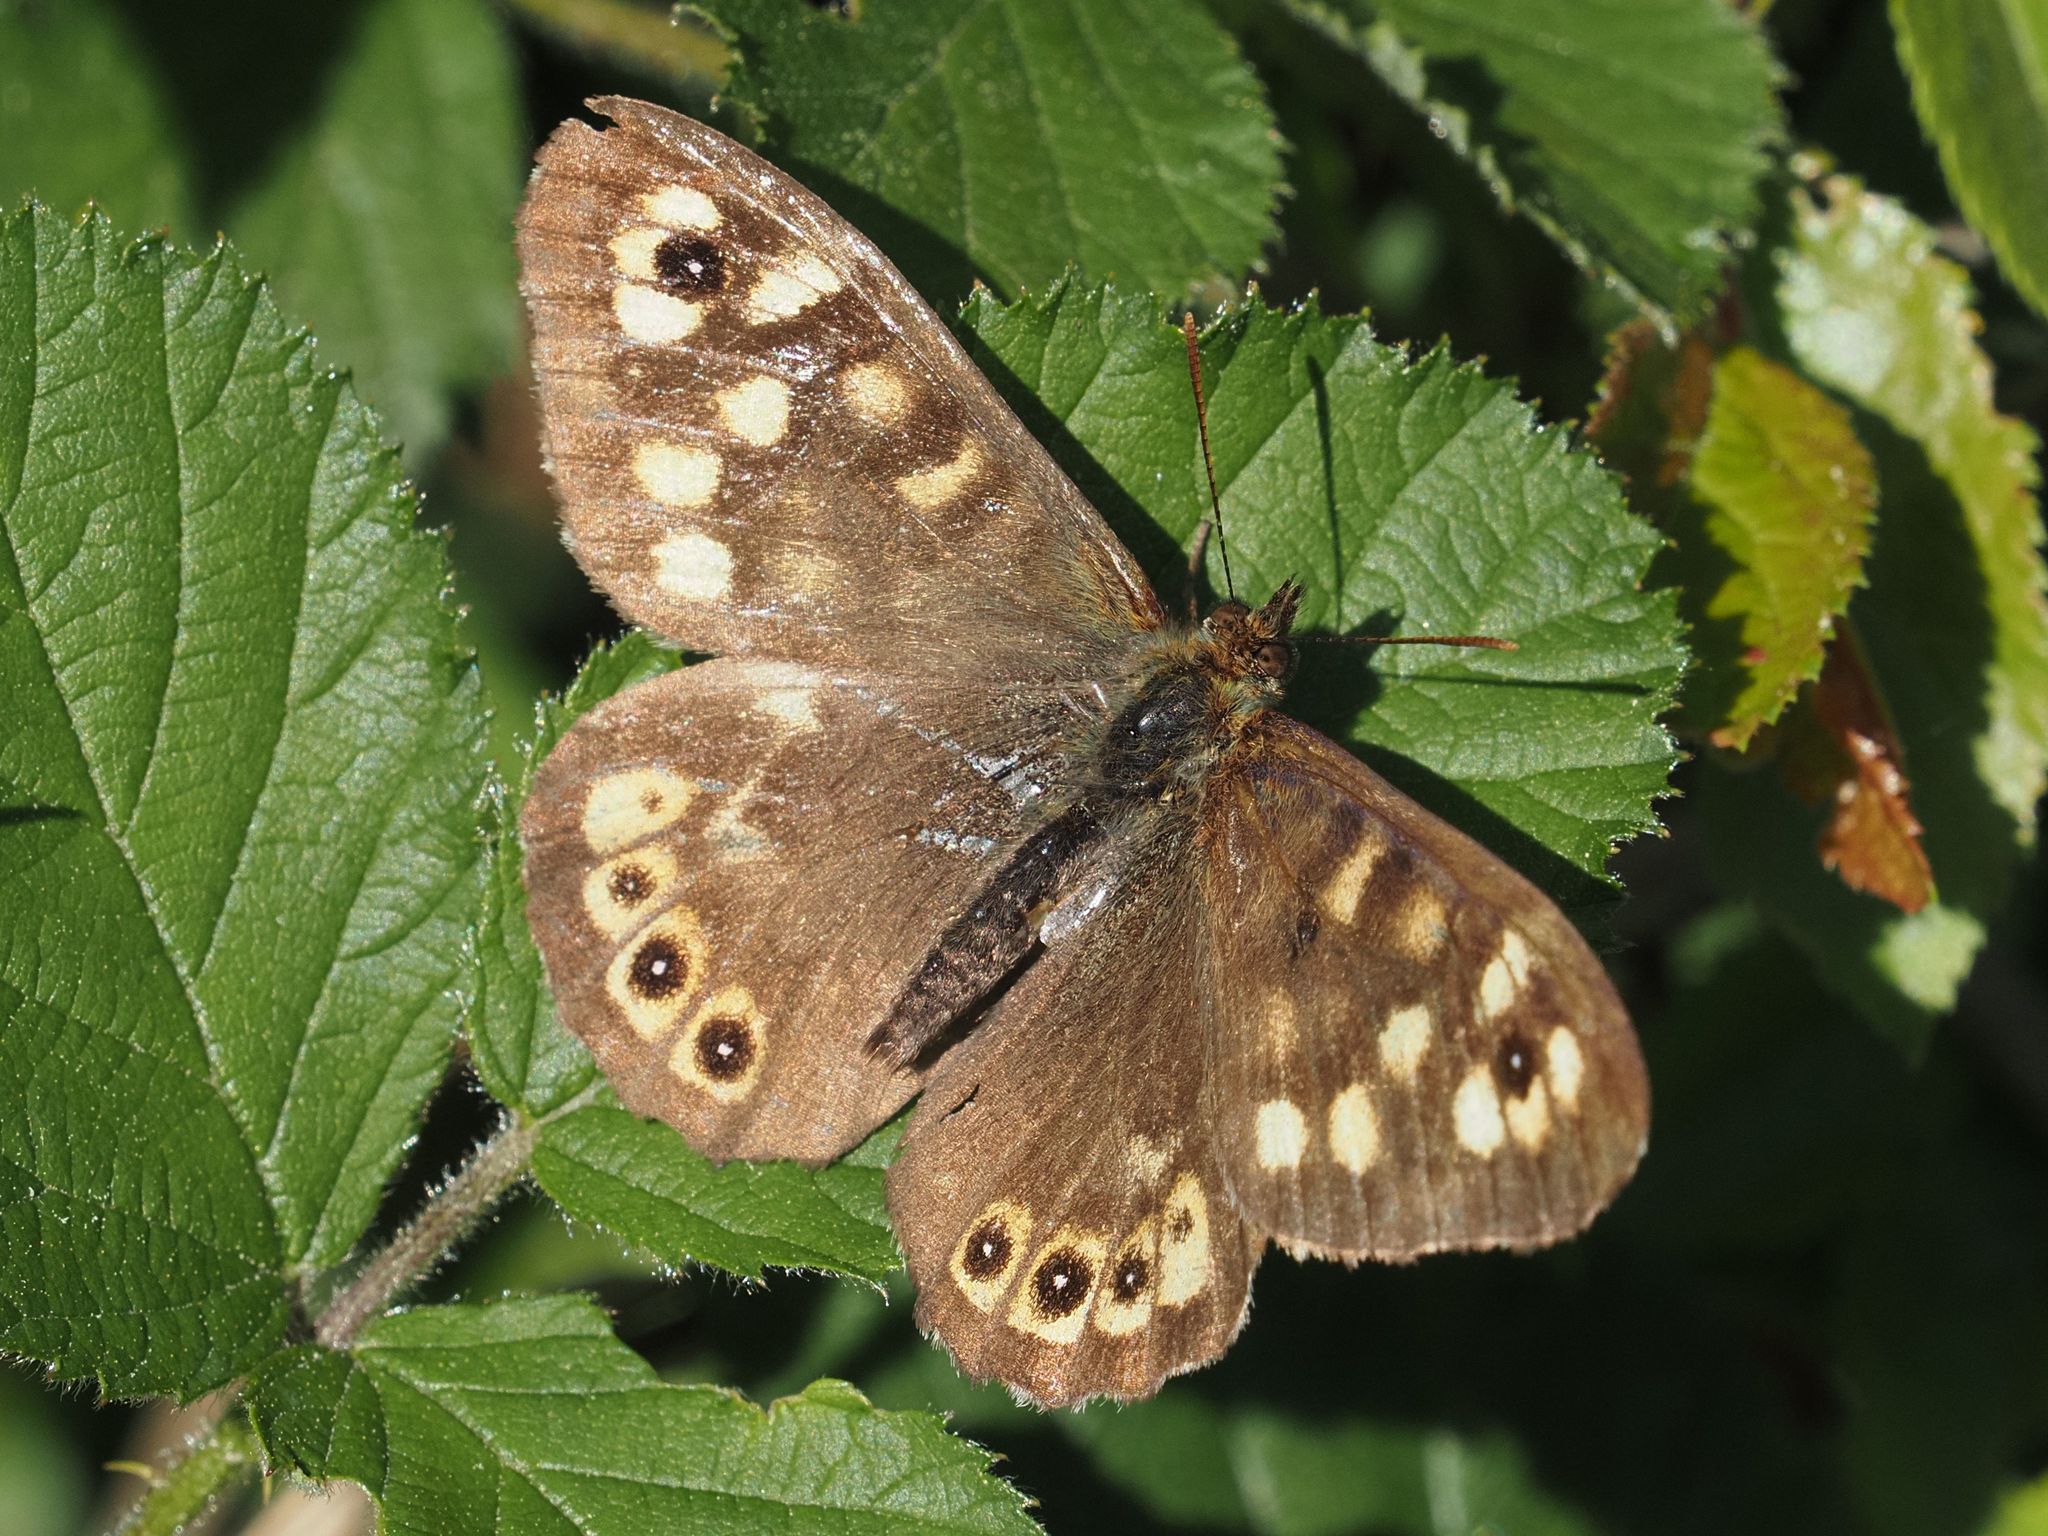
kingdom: Animalia
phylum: Arthropoda
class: Insecta
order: Lepidoptera
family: Nymphalidae
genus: Pararge
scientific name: Pararge aegeria
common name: Speckled wood
